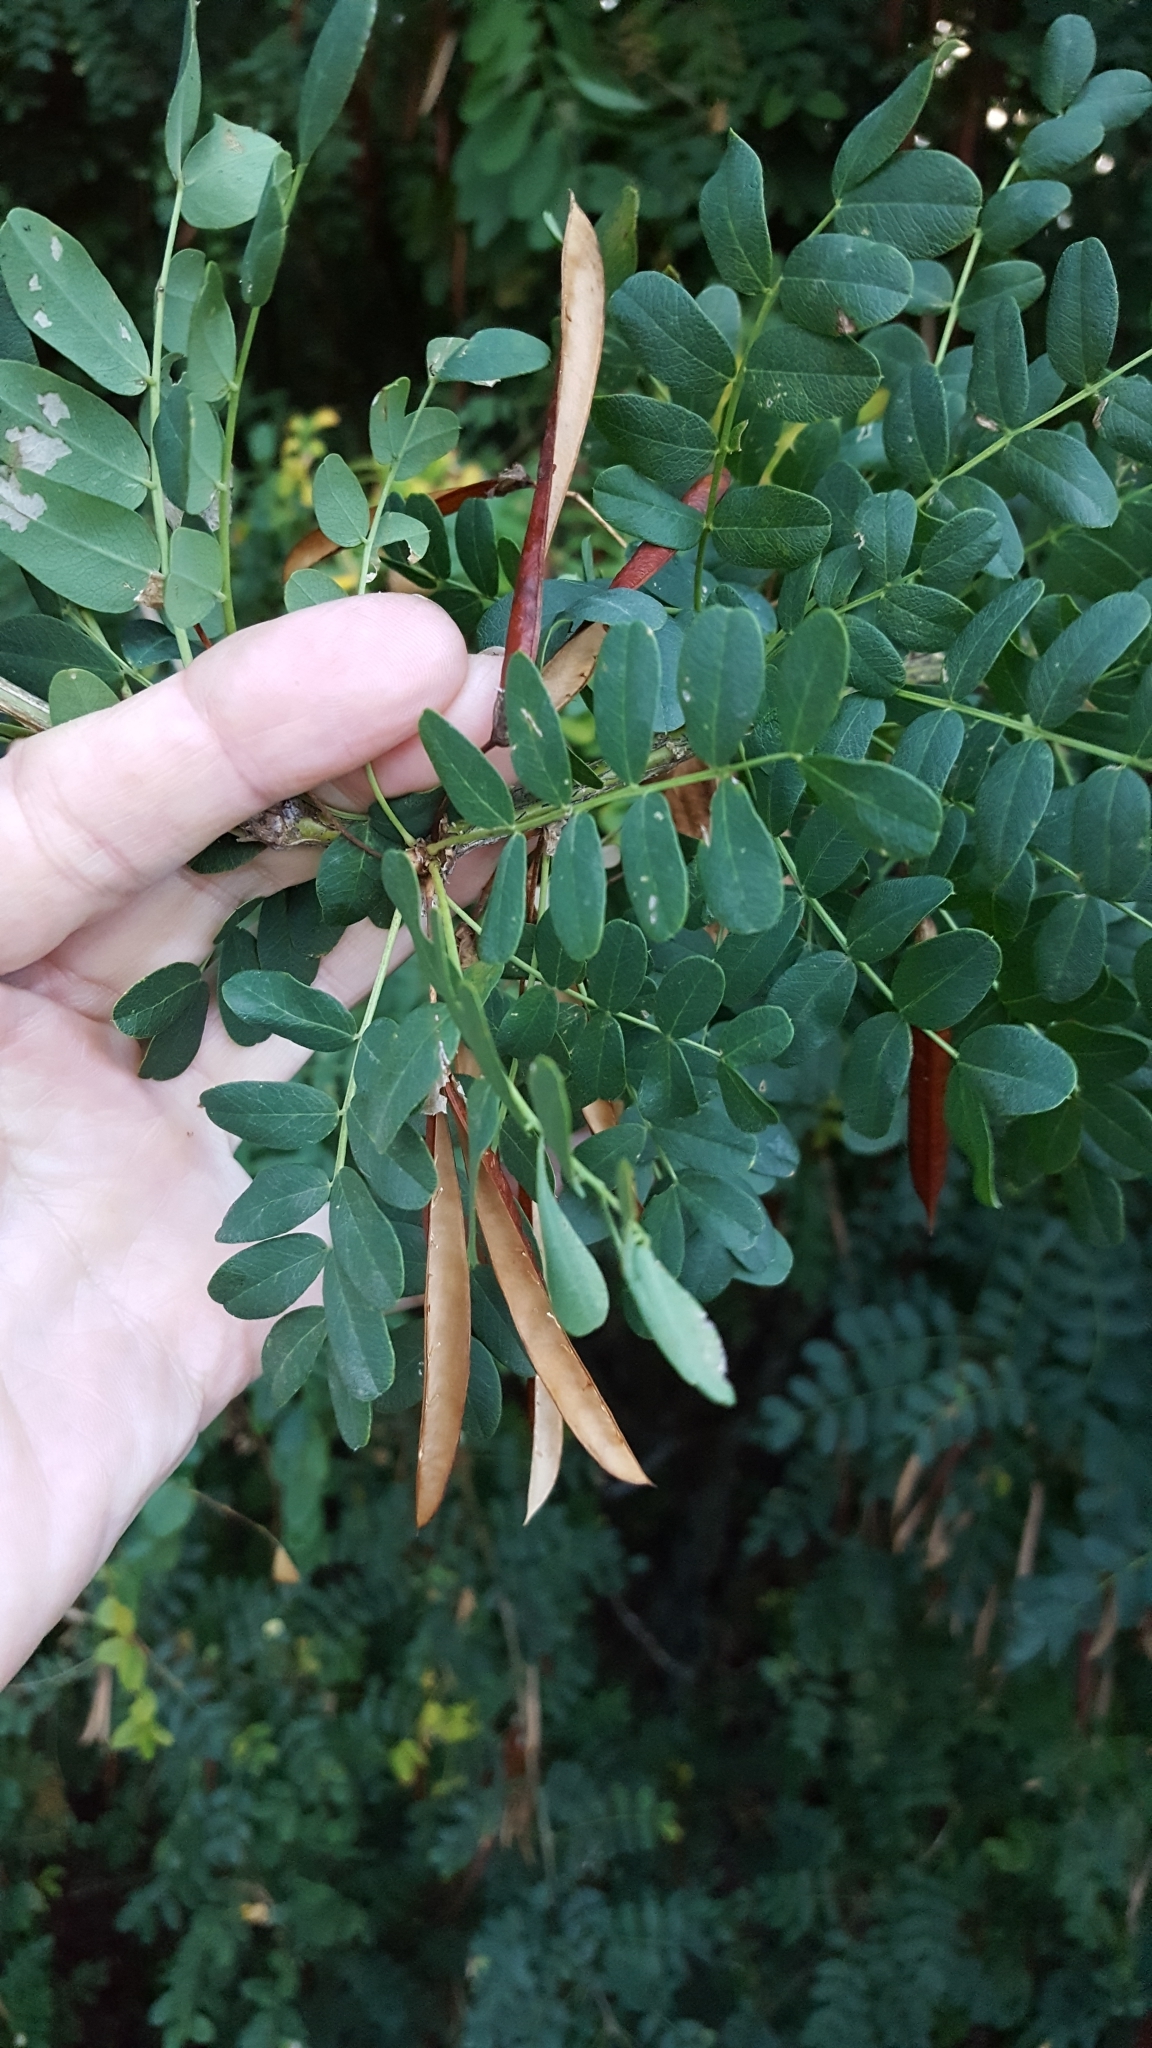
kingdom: Plantae
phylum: Tracheophyta
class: Magnoliopsida
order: Fabales
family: Fabaceae
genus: Caragana
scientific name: Caragana arborescens
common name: Siberian peashrub
